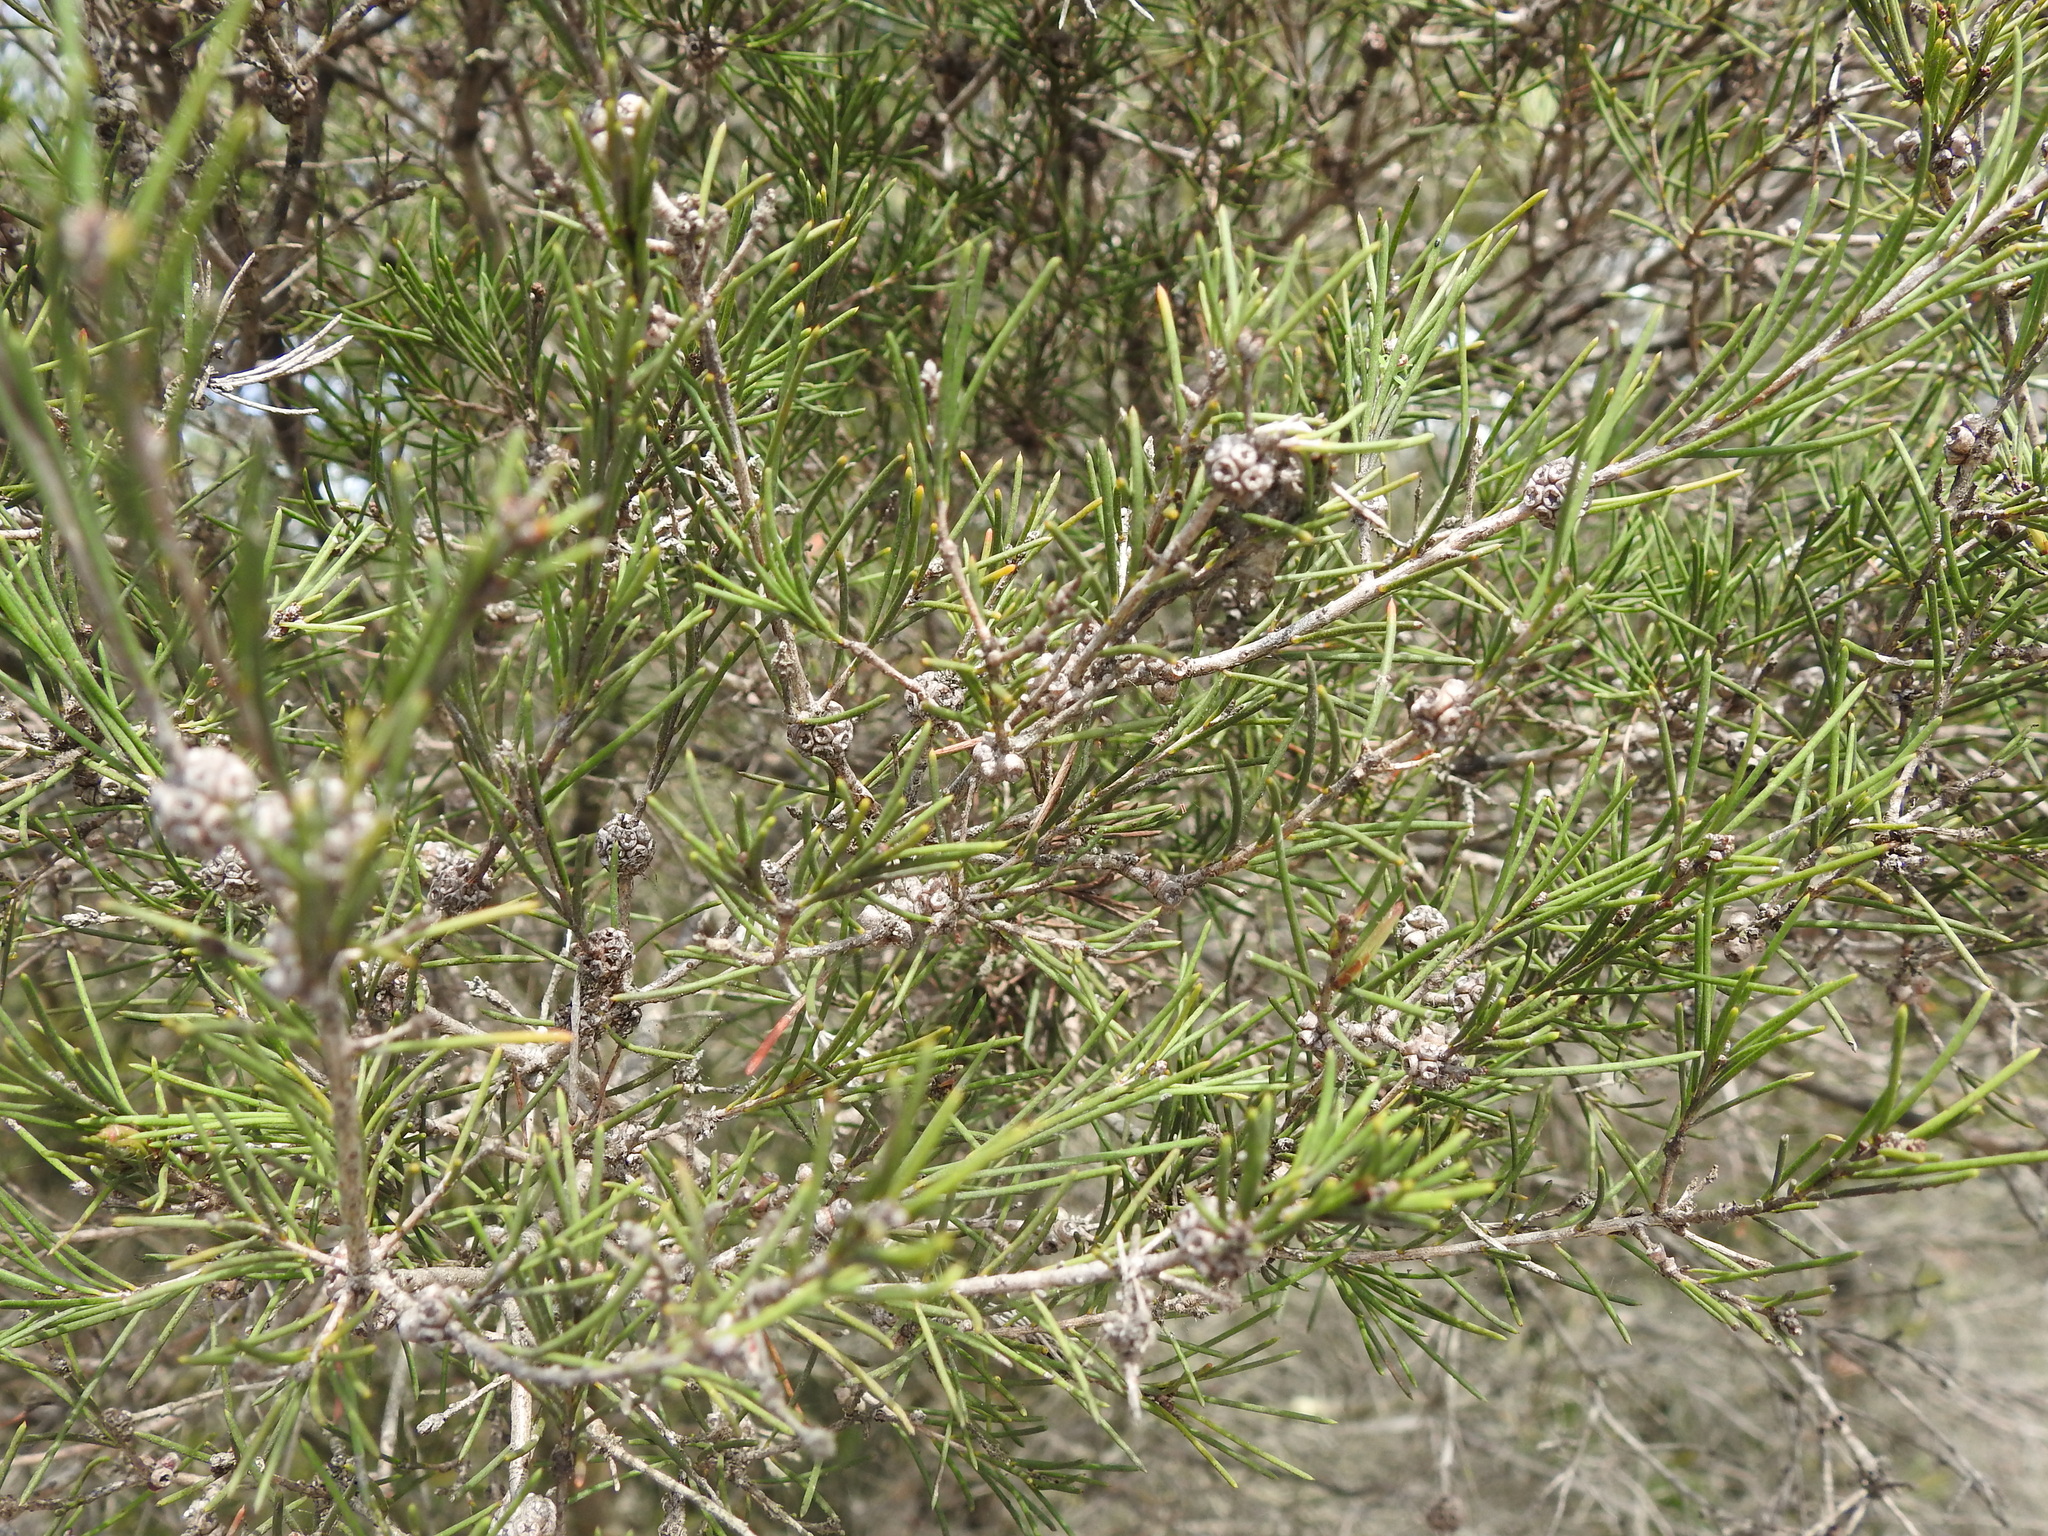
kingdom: Plantae
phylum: Tracheophyta
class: Magnoliopsida
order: Myrtales
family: Myrtaceae
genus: Melaleuca
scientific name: Melaleuca nodosa
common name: Prickly-leaf paperbark
